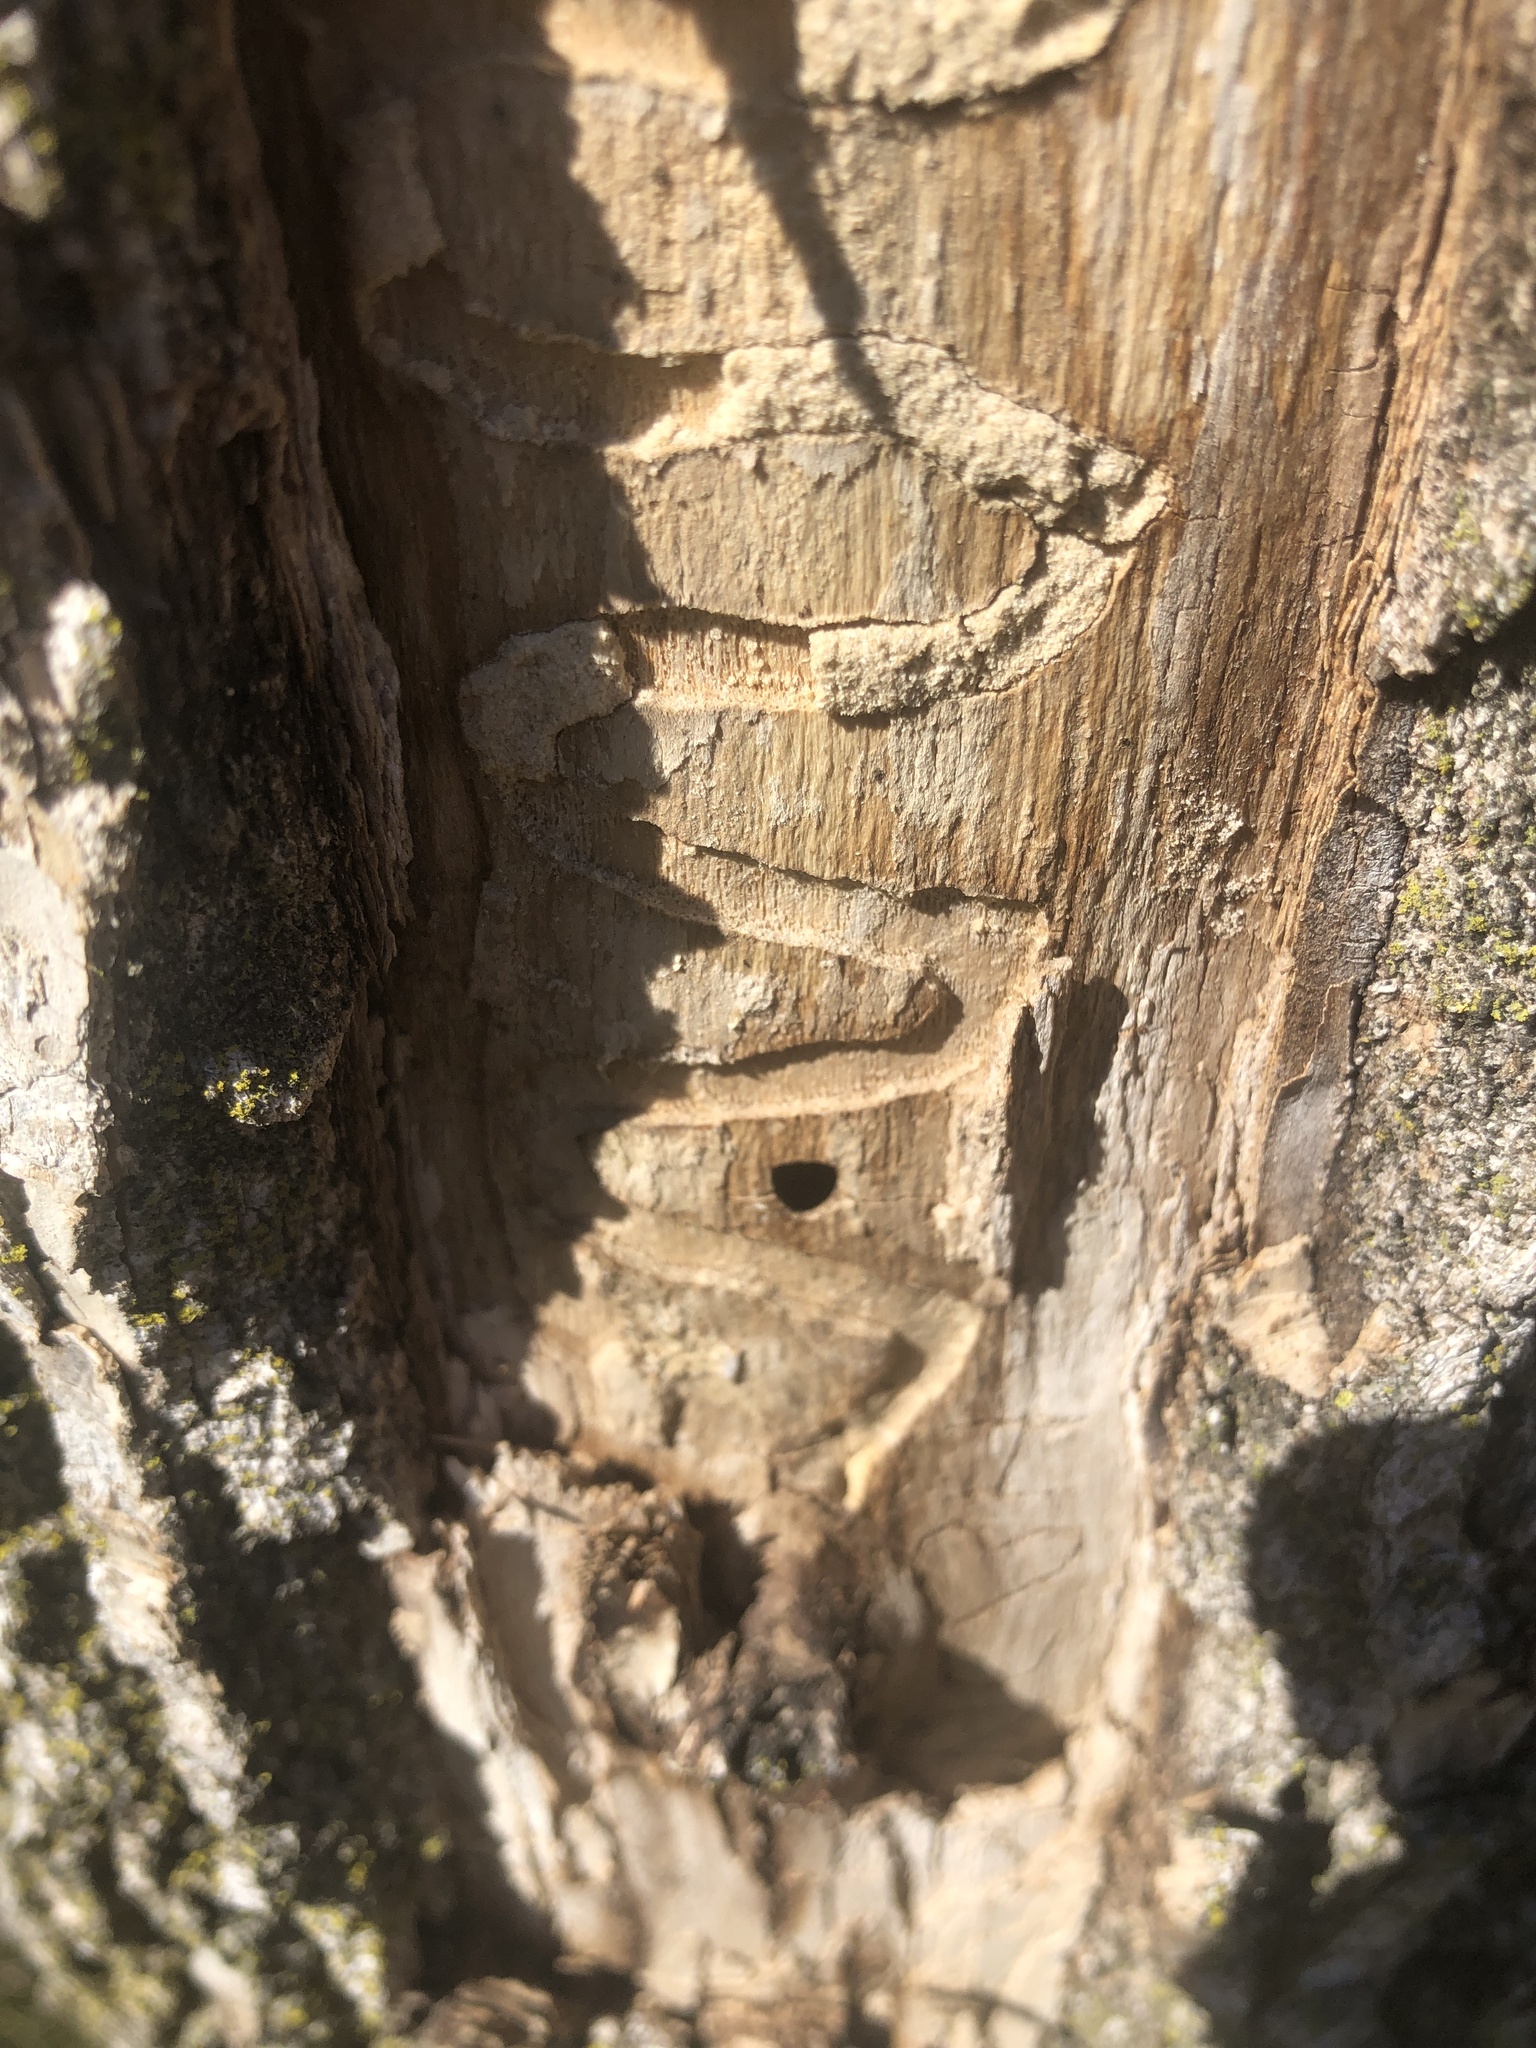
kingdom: Animalia
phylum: Arthropoda
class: Insecta
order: Coleoptera
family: Buprestidae
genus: Agrilus
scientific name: Agrilus planipennis
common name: Emerald ash borer
